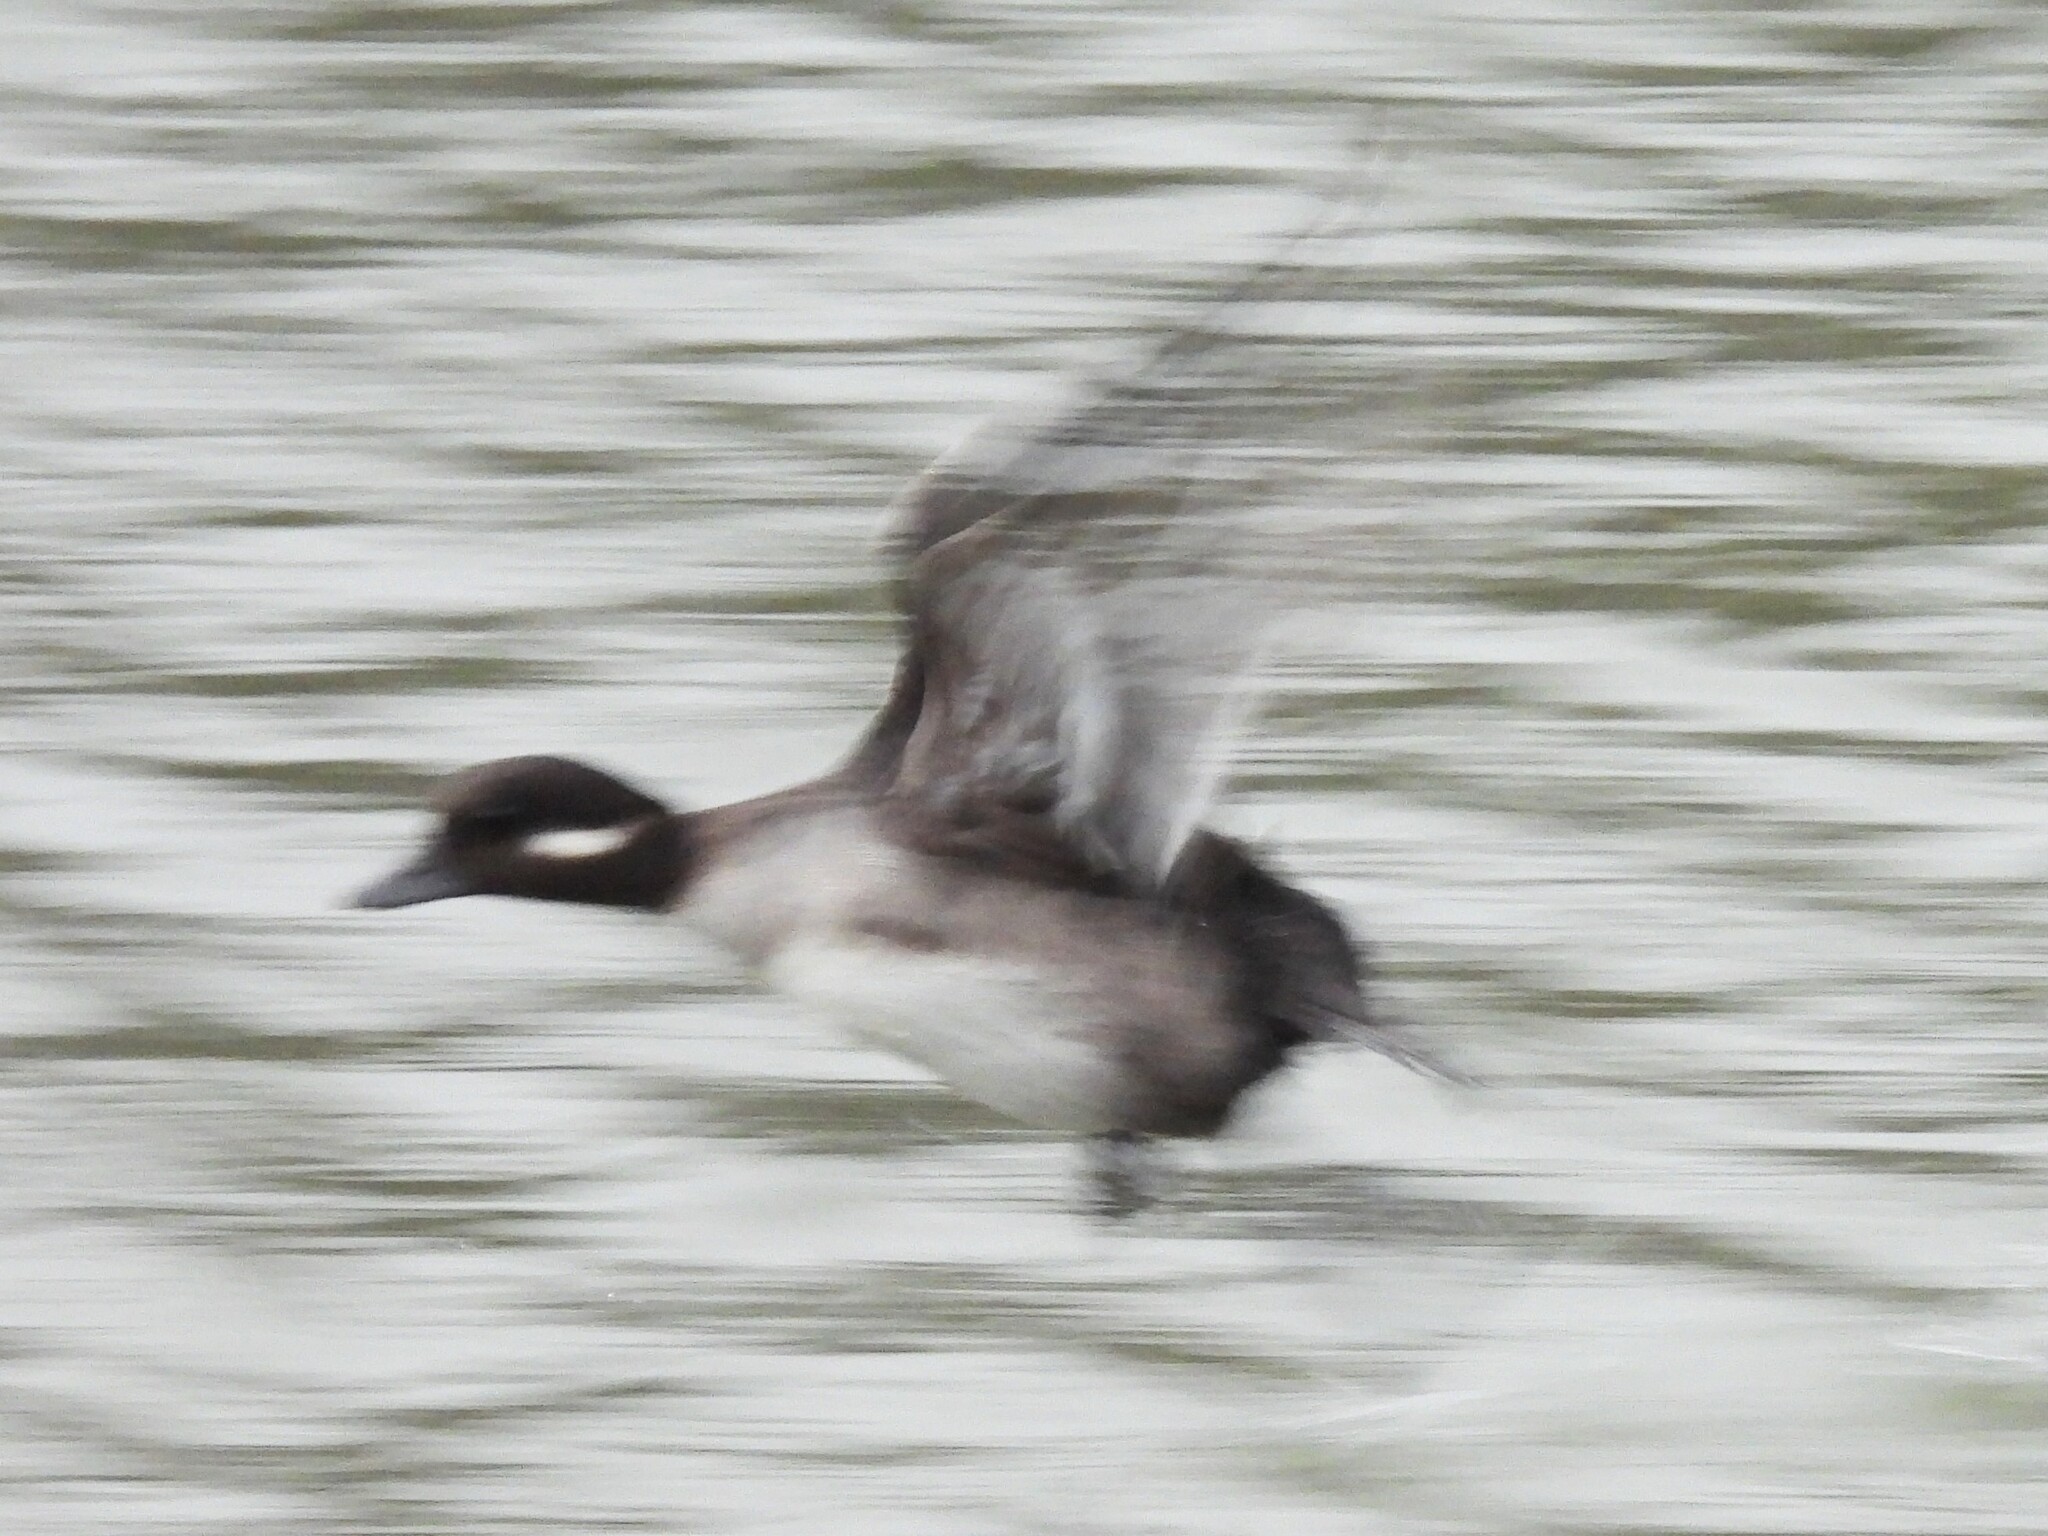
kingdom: Animalia
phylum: Chordata
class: Aves
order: Anseriformes
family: Anatidae
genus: Bucephala
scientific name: Bucephala albeola
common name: Bufflehead
